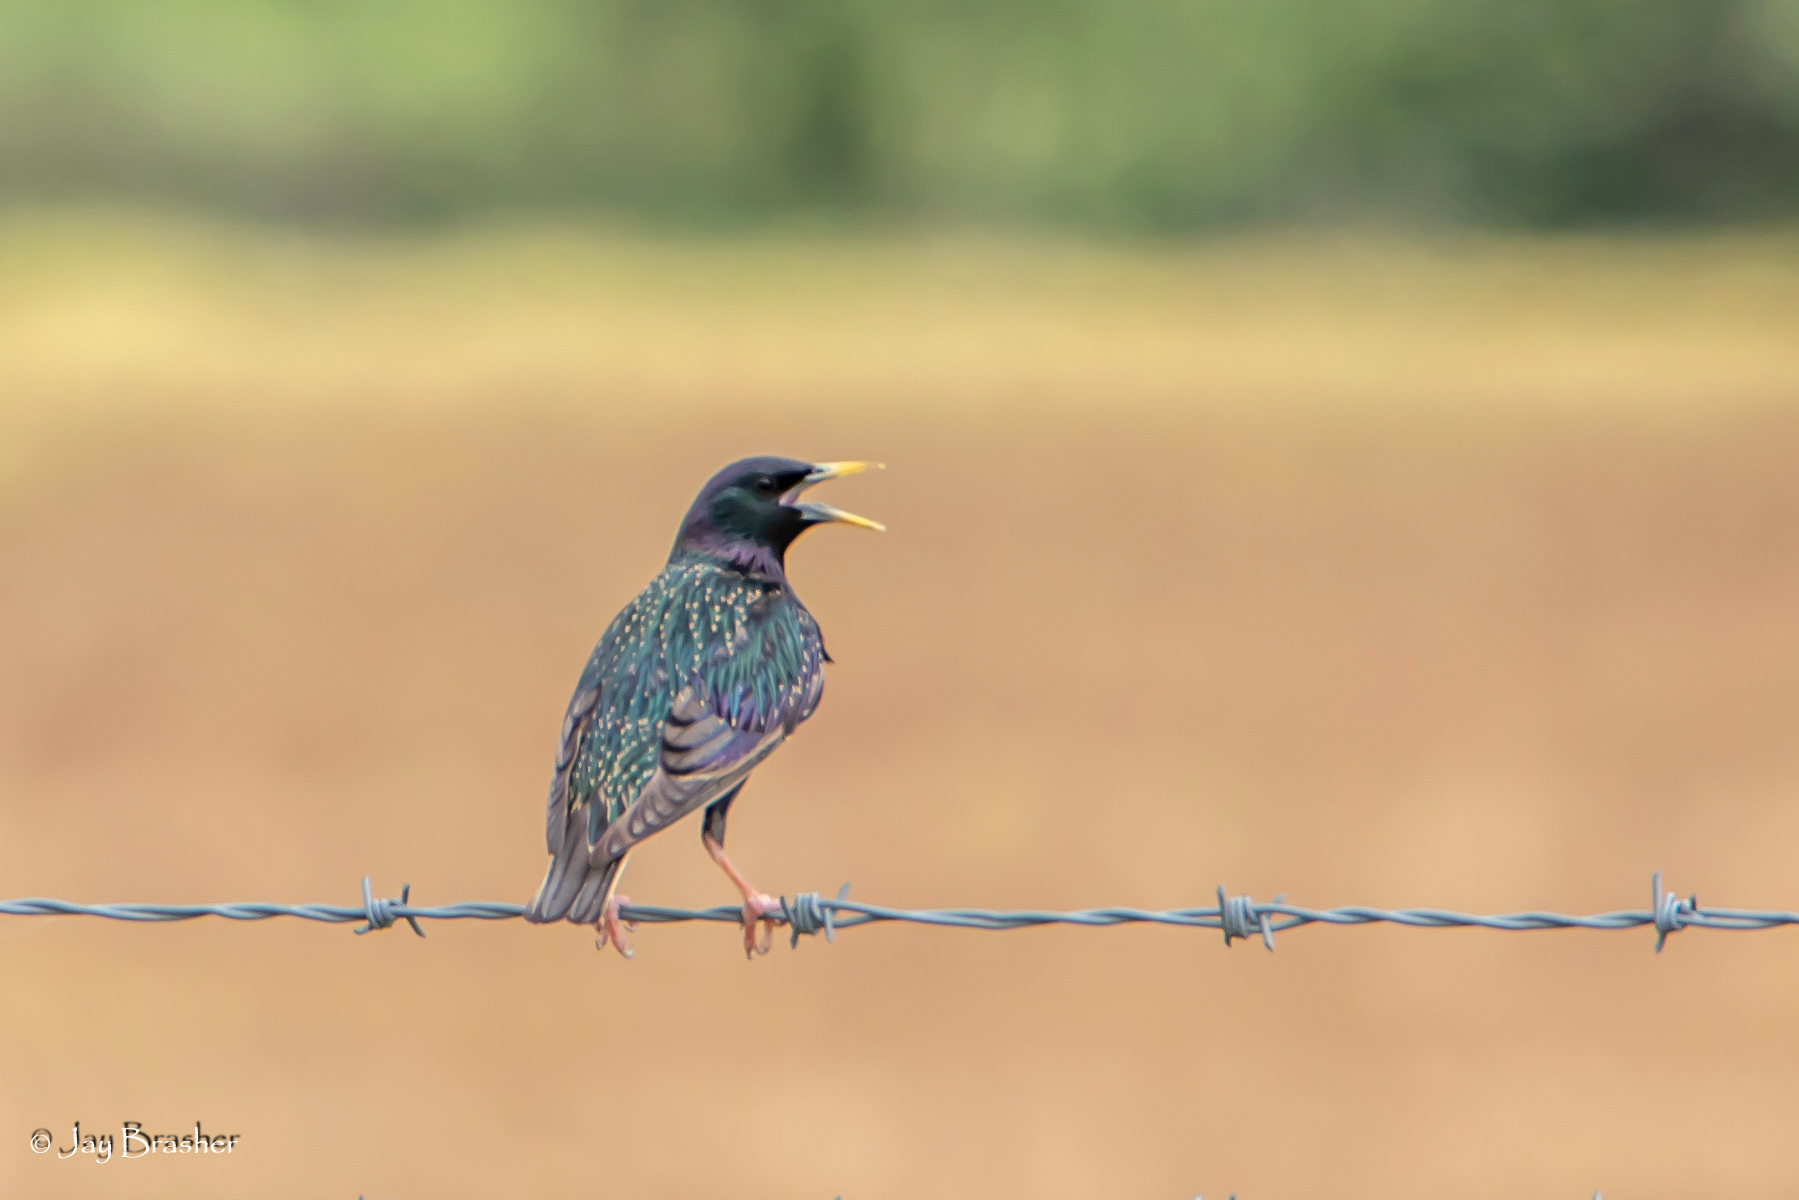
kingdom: Animalia
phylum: Chordata
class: Aves
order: Passeriformes
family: Sturnidae
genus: Sturnus
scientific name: Sturnus vulgaris
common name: Common starling
